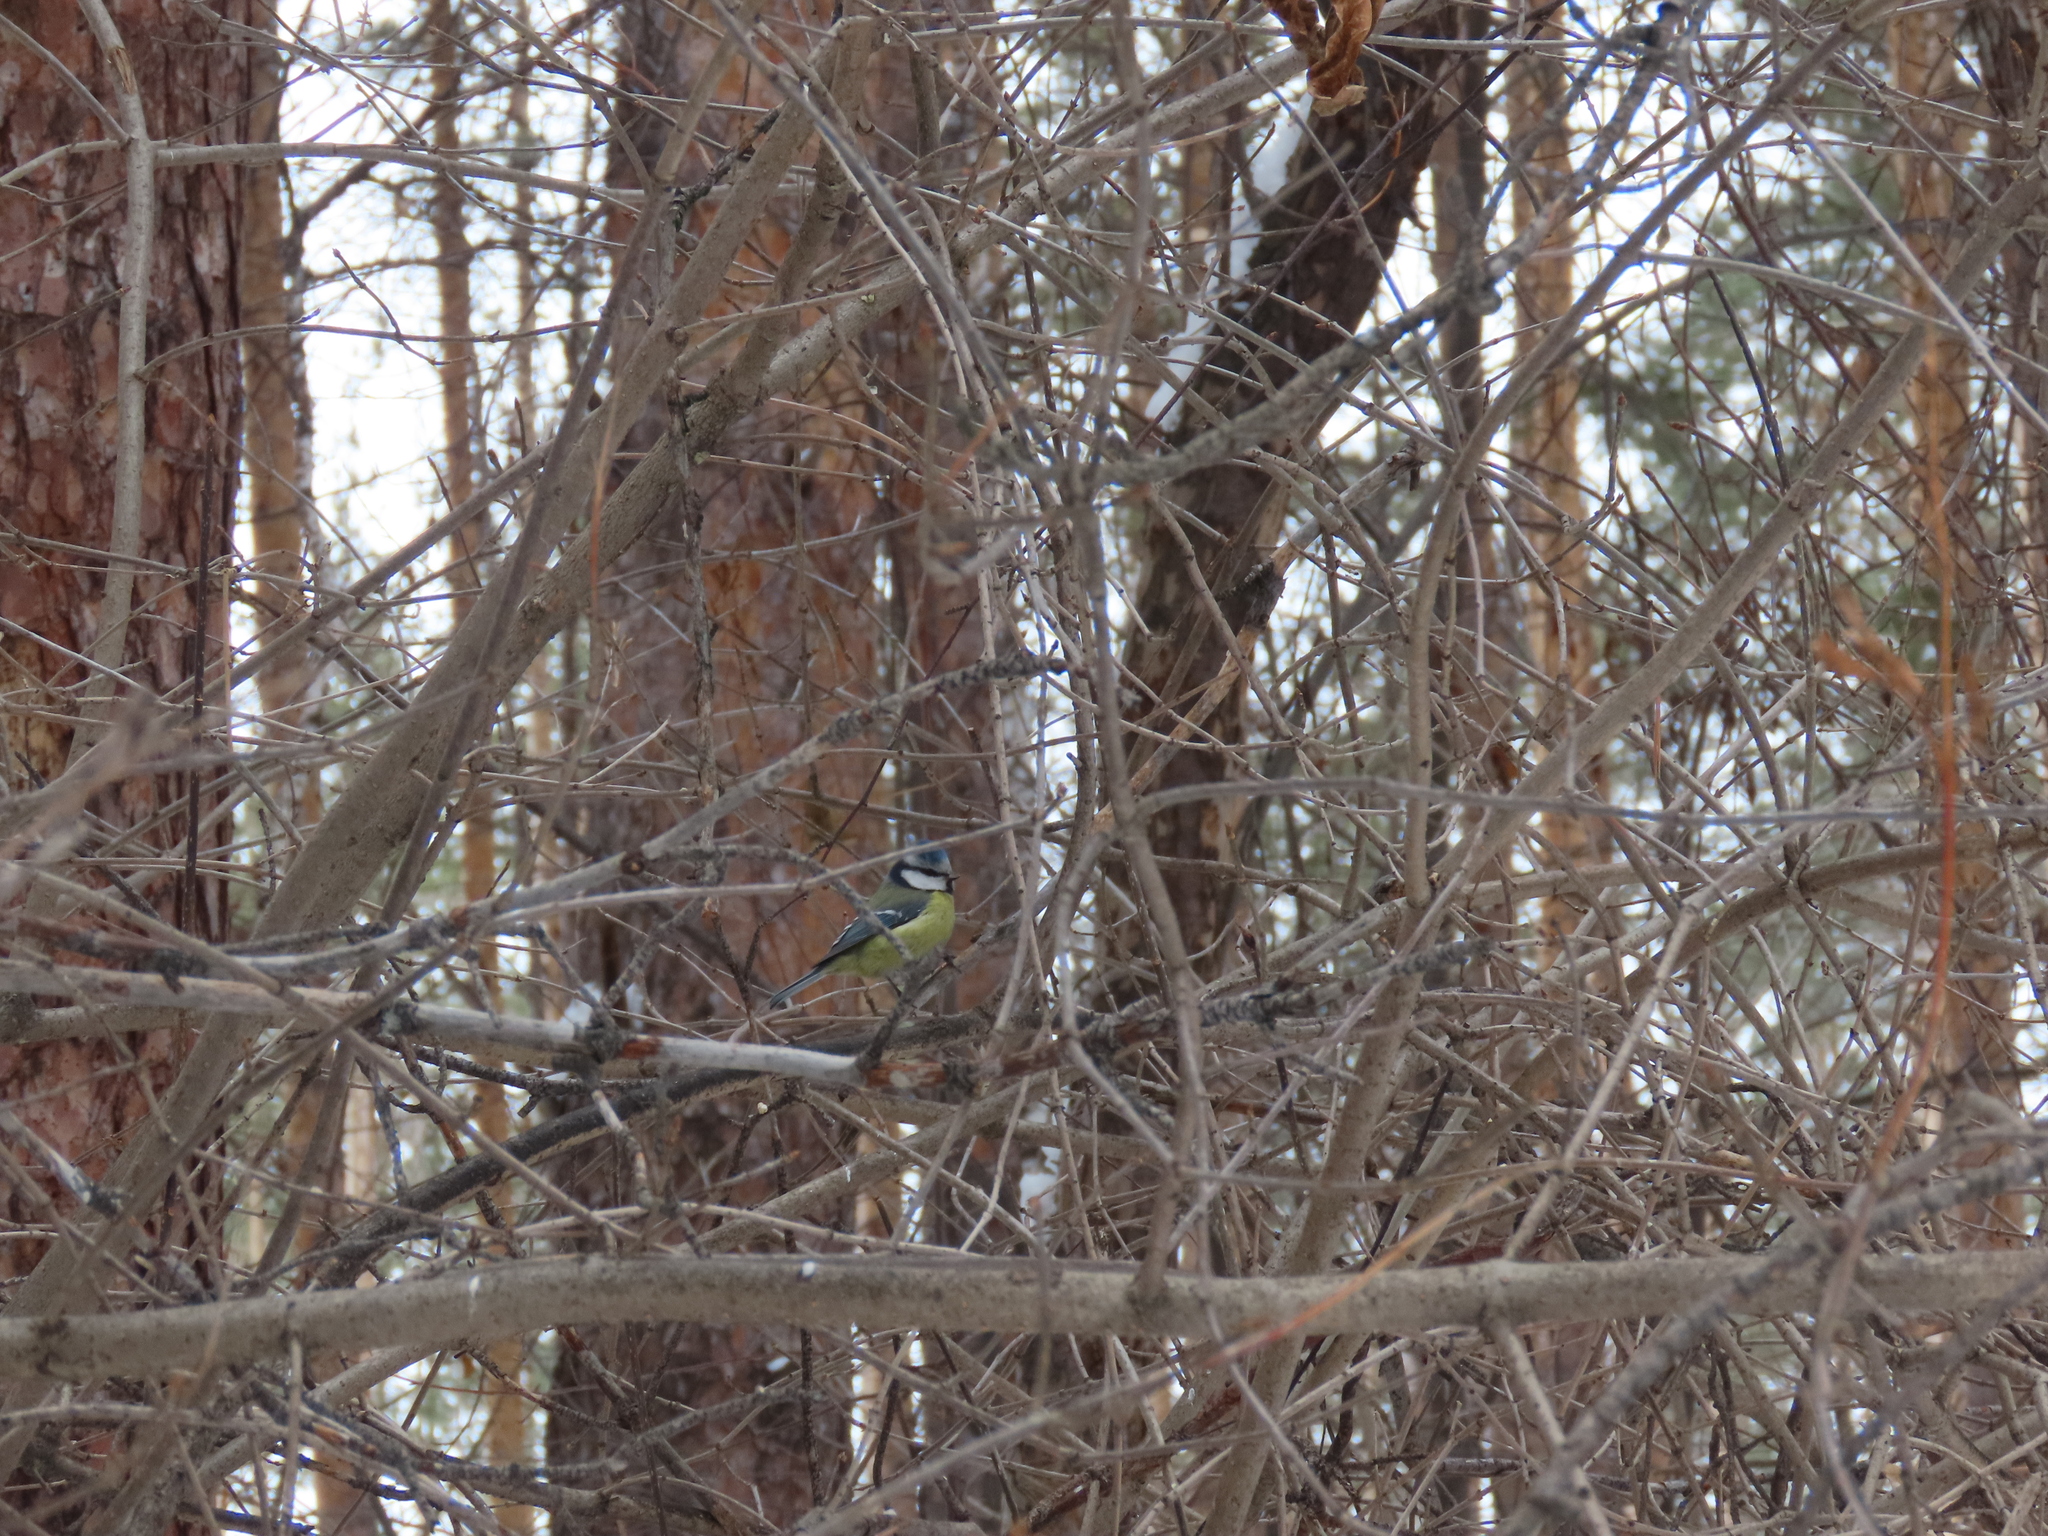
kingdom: Animalia
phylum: Chordata
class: Aves
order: Passeriformes
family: Paridae
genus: Cyanistes
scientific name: Cyanistes caeruleus
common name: Eurasian blue tit
